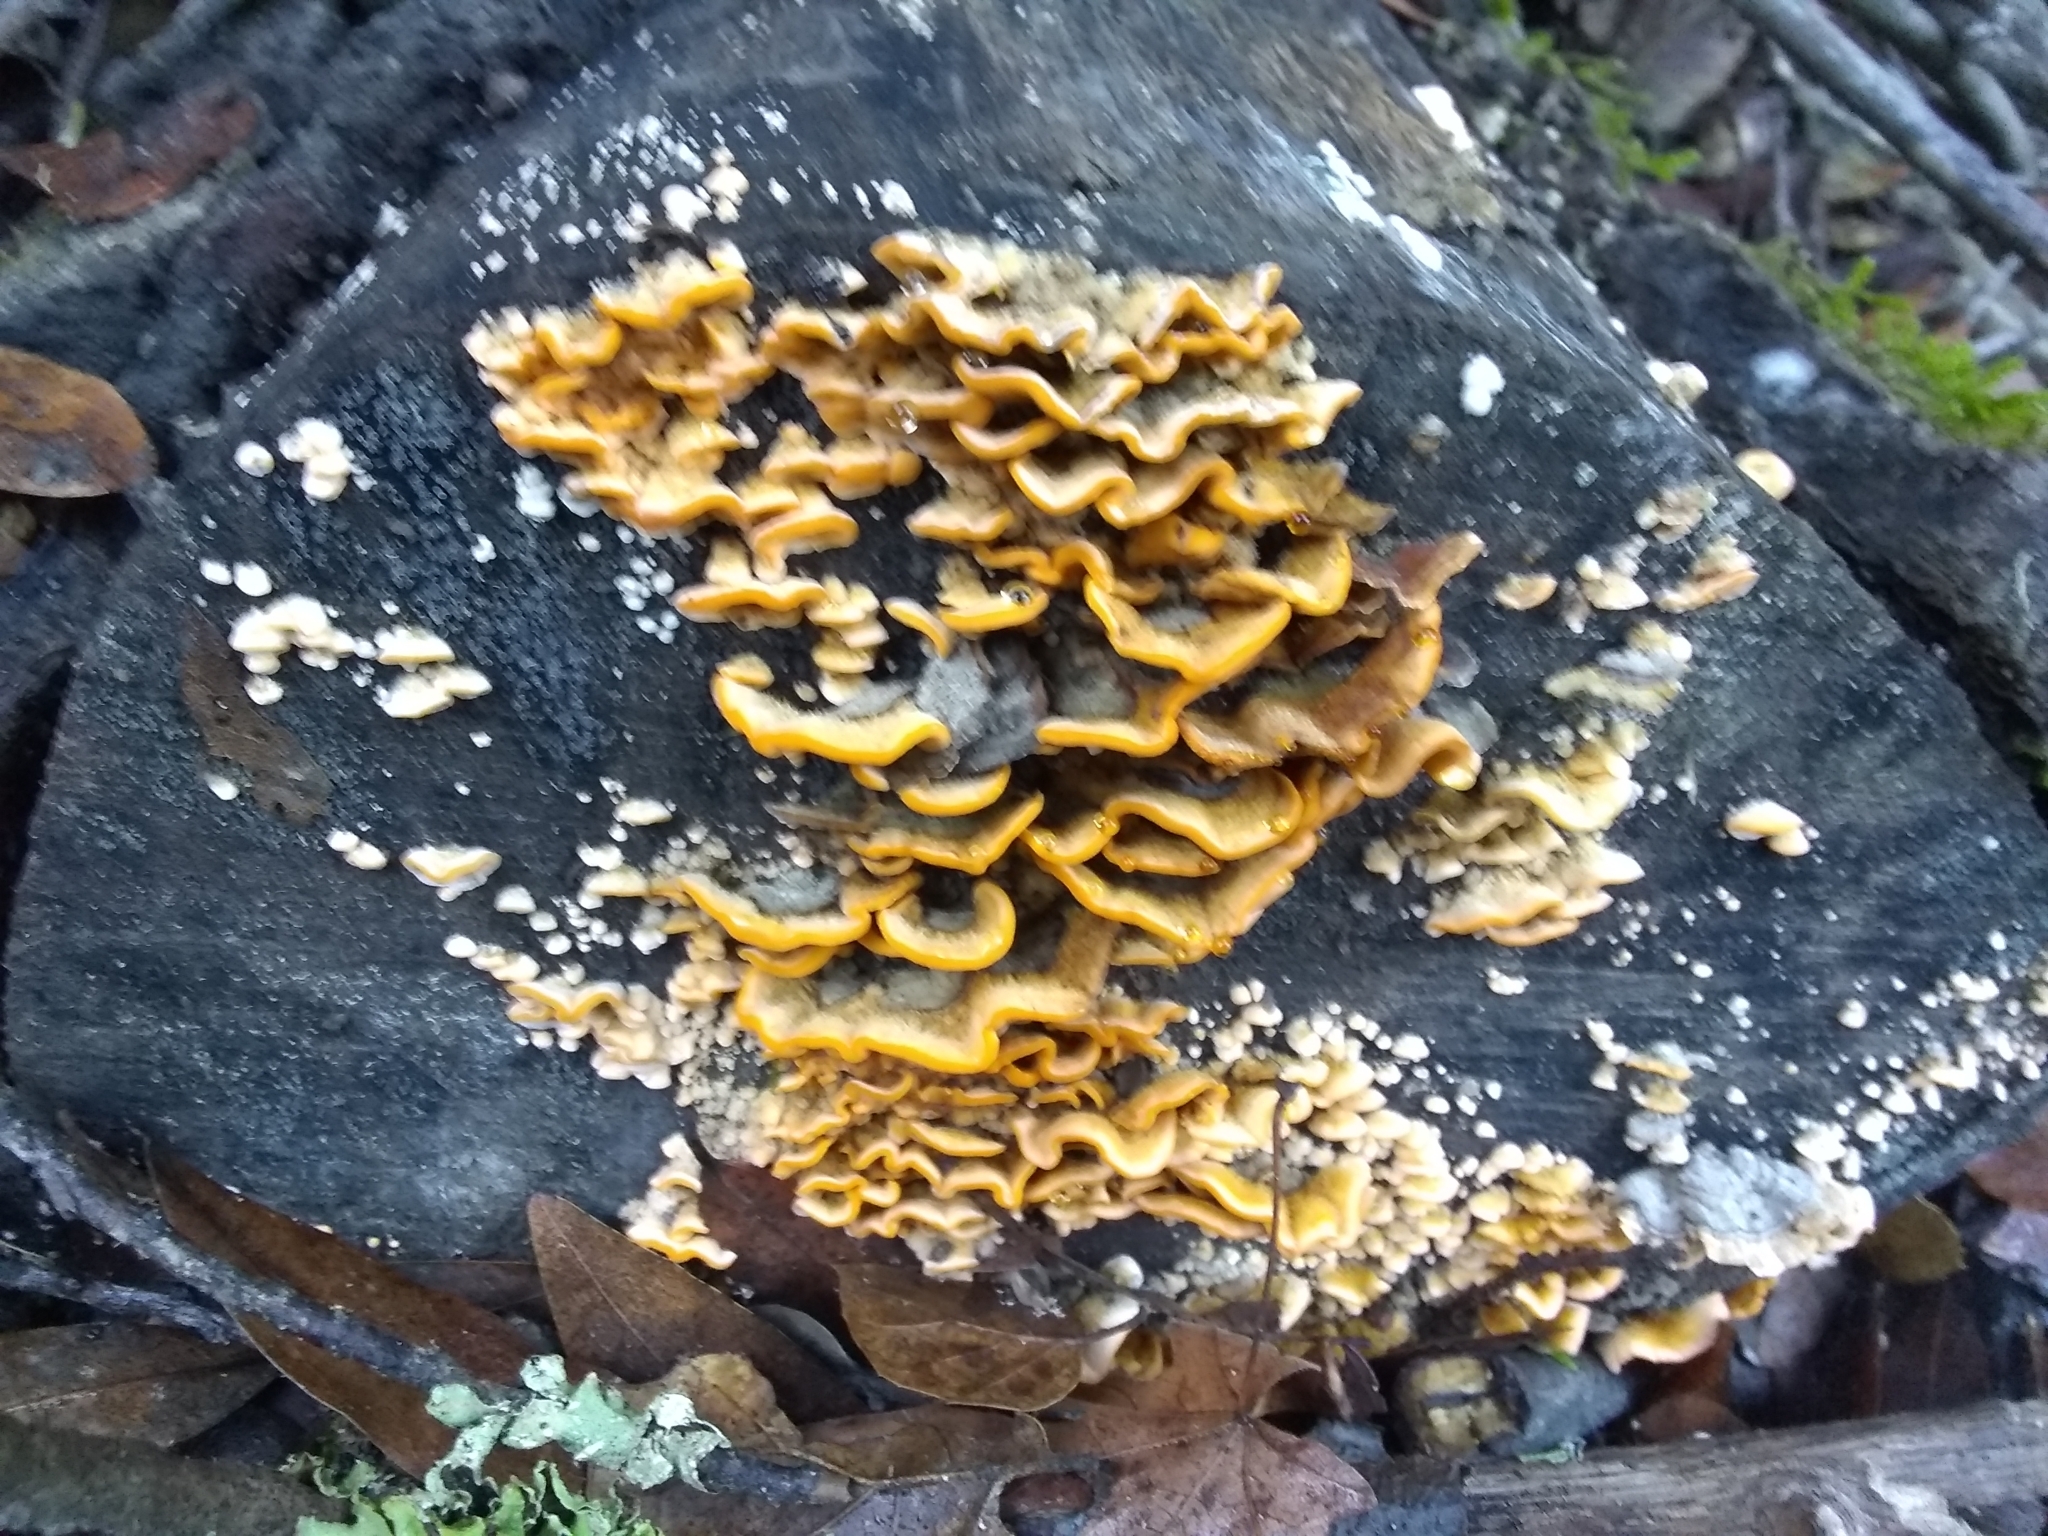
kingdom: Fungi
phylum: Basidiomycota
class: Agaricomycetes
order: Russulales
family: Stereaceae
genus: Stereum
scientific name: Stereum hirsutum
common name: Hairy curtain crust
